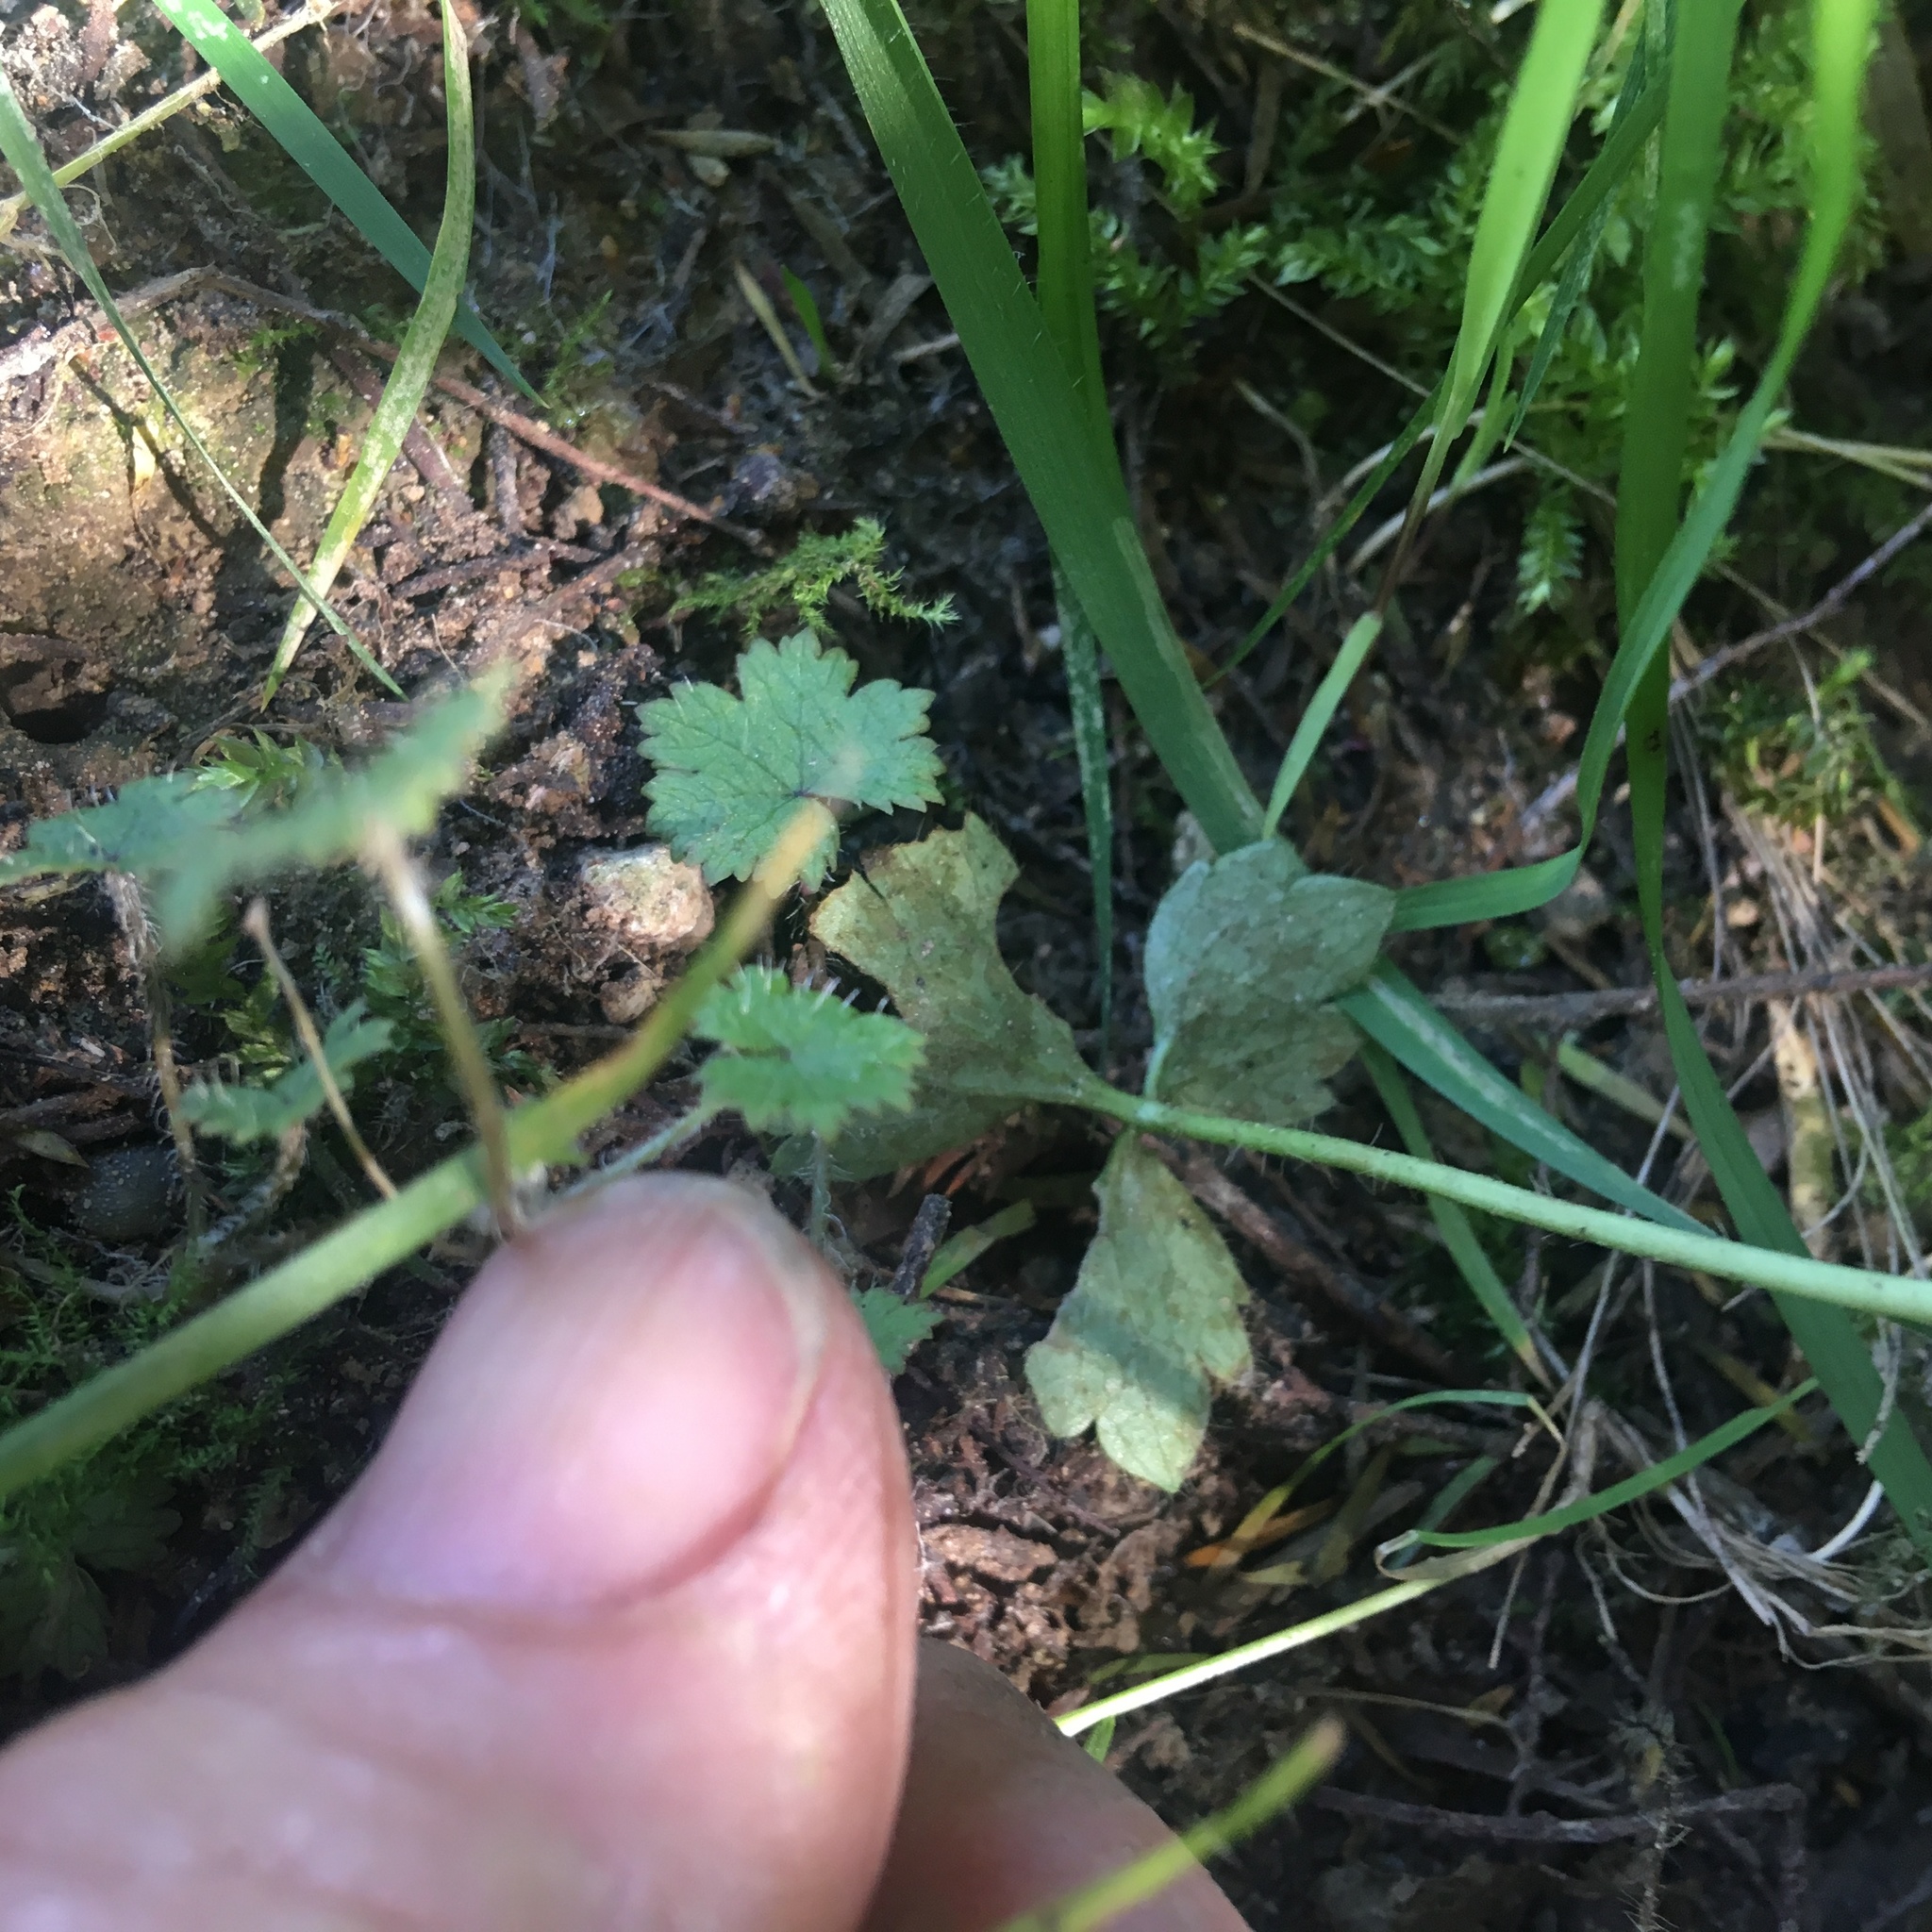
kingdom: Plantae
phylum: Tracheophyta
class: Magnoliopsida
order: Apiales
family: Araliaceae
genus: Hydrocotyle
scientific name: Hydrocotyle moschata
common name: Hairy pennywort
